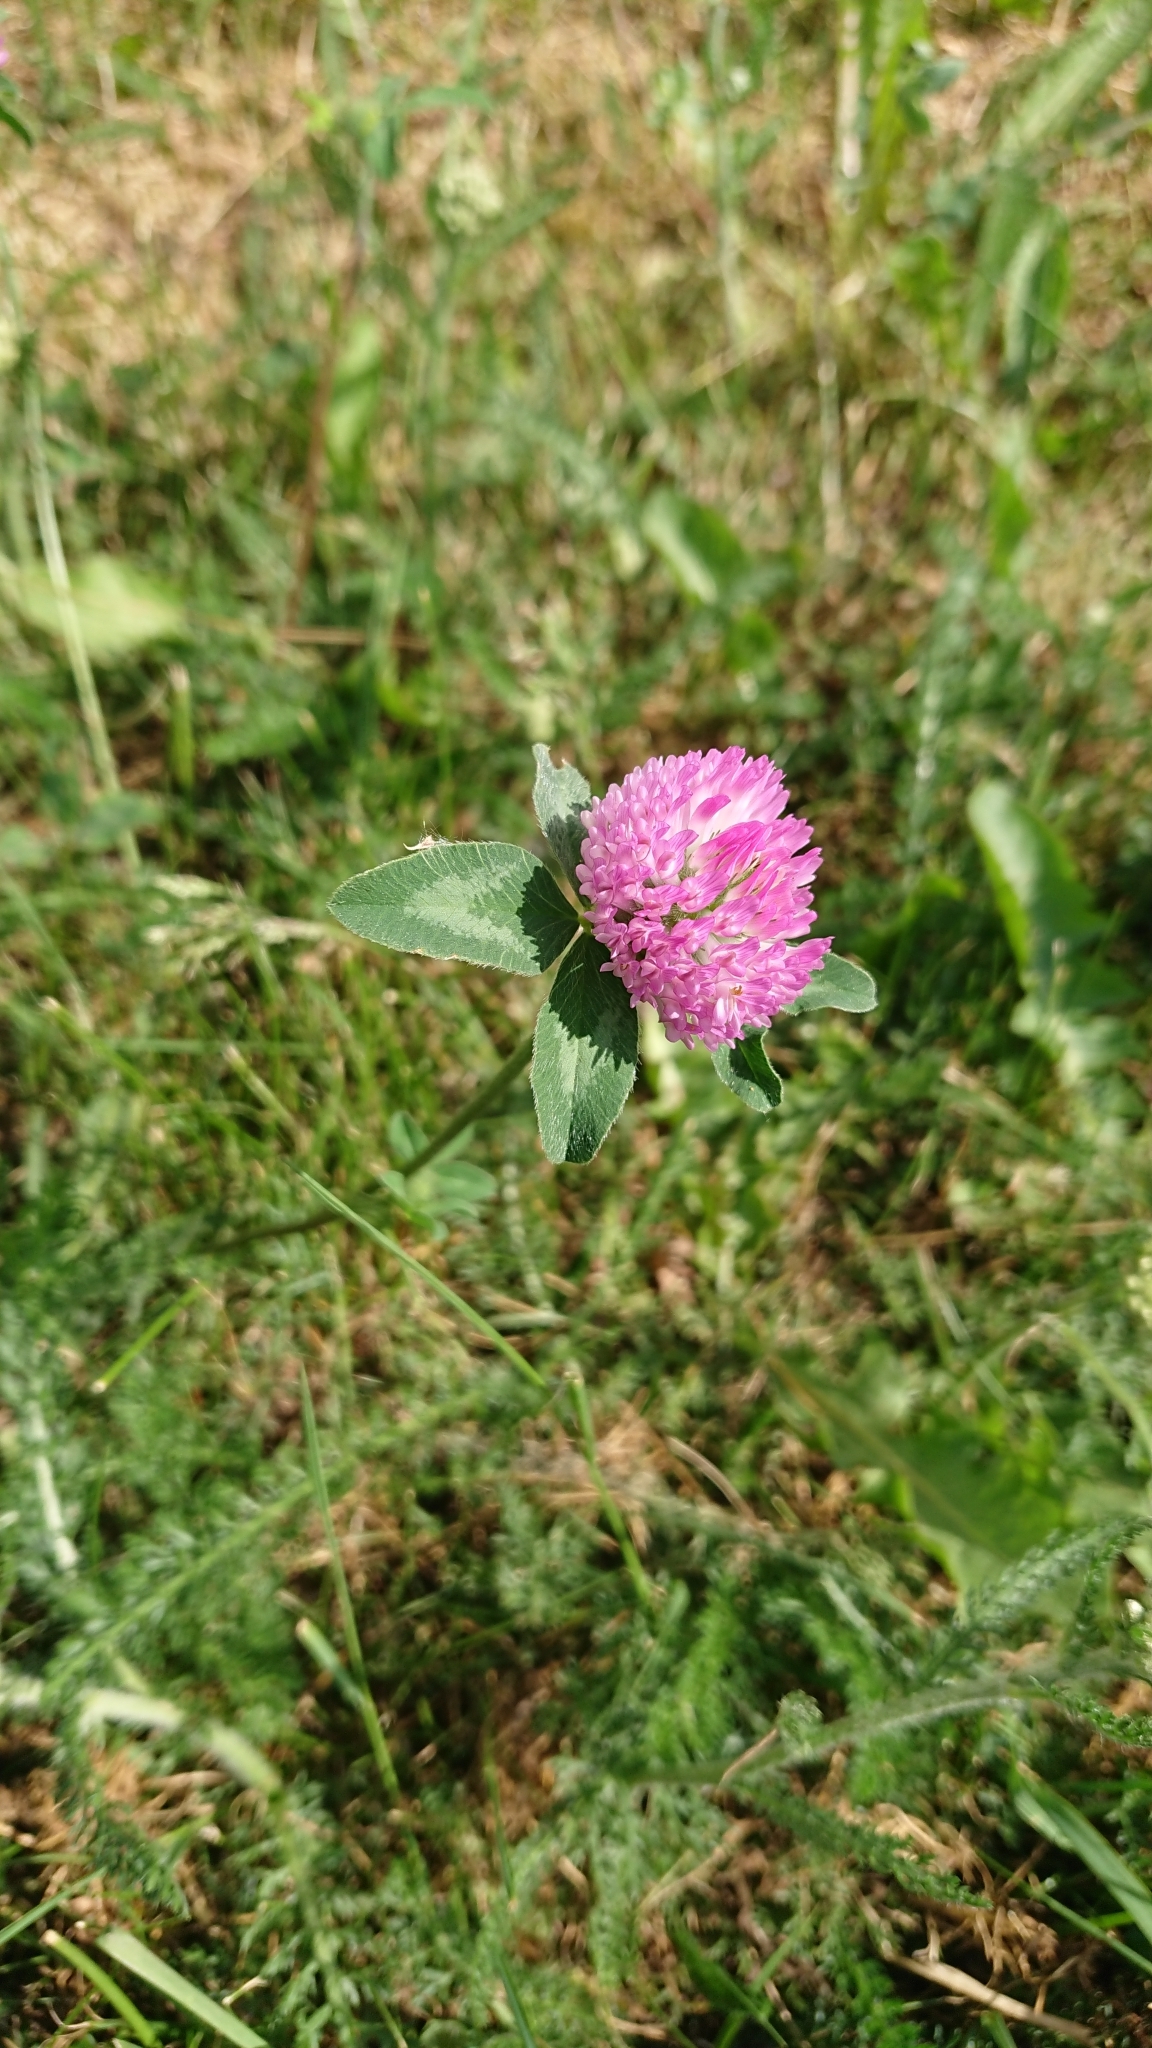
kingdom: Plantae
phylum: Tracheophyta
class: Magnoliopsida
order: Fabales
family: Fabaceae
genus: Trifolium
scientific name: Trifolium pratense
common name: Red clover
